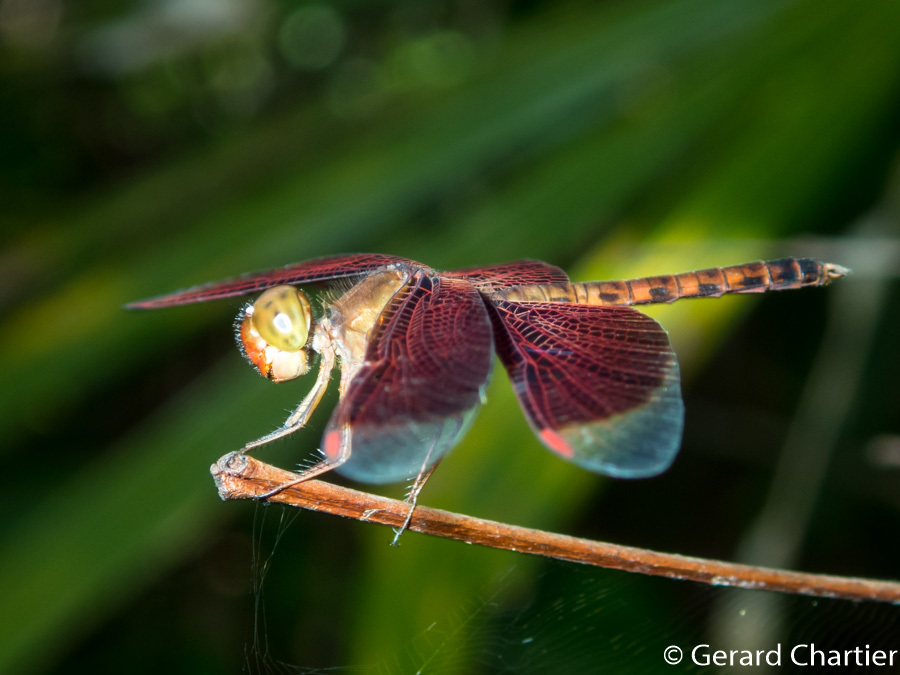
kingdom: Animalia
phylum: Arthropoda
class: Insecta
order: Odonata
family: Libellulidae
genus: Neurothemis
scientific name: Neurothemis fluctuans
